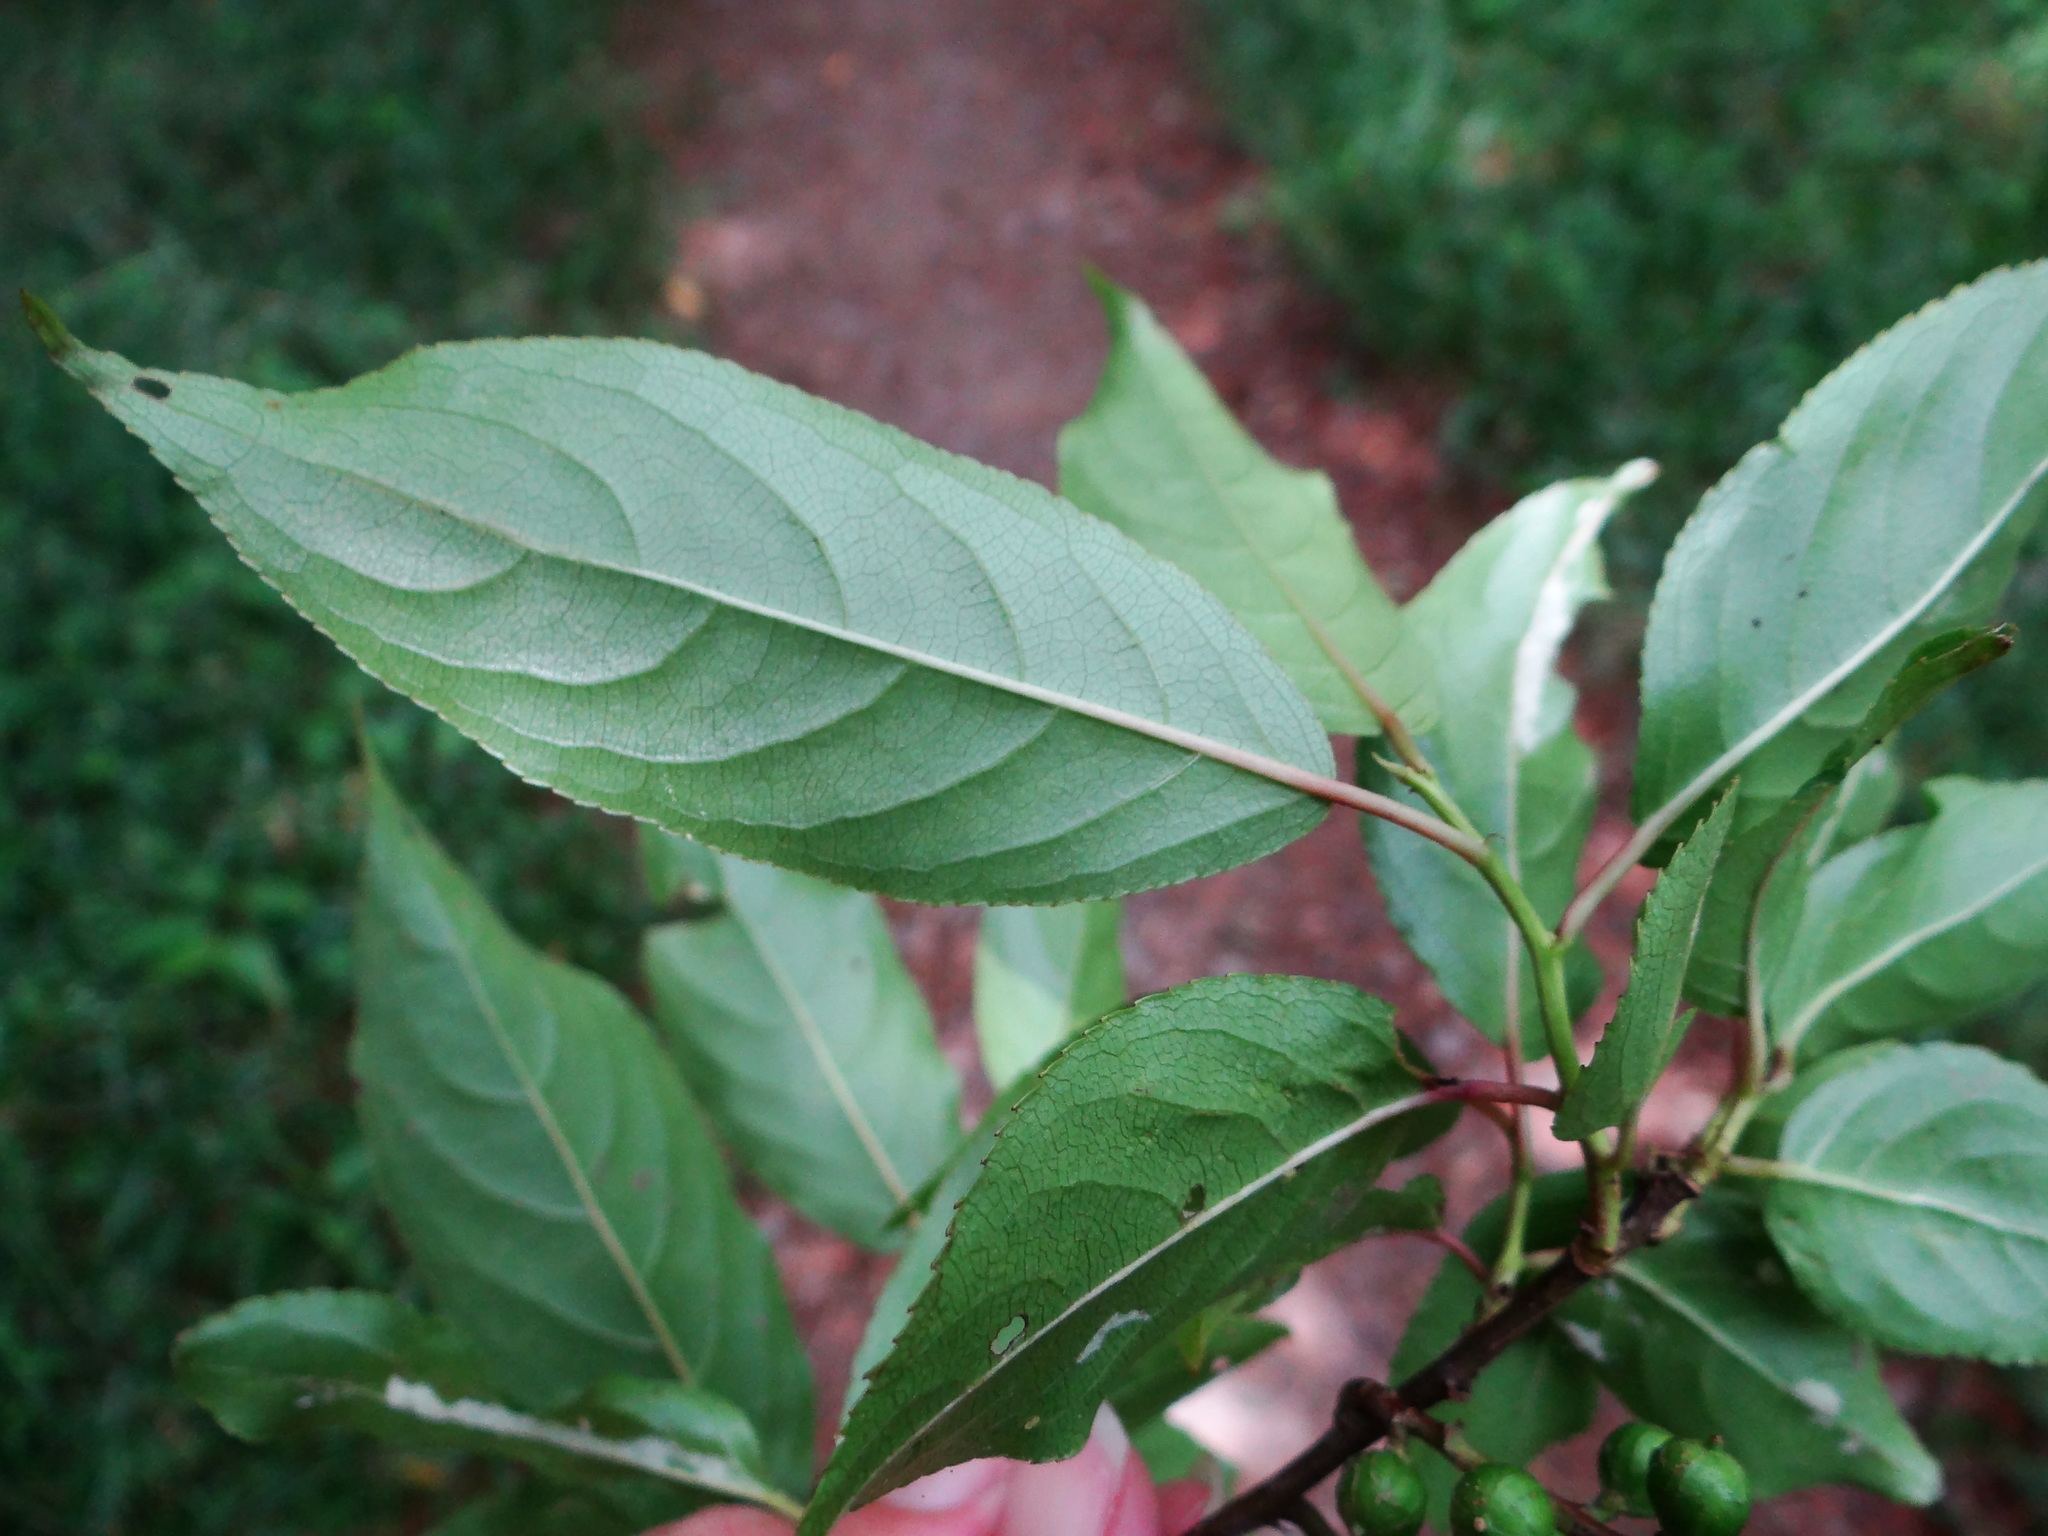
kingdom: Plantae
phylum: Tracheophyta
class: Magnoliopsida
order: Crossosomatales
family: Stachyuraceae
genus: Stachyurus
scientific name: Stachyurus himalaicus
